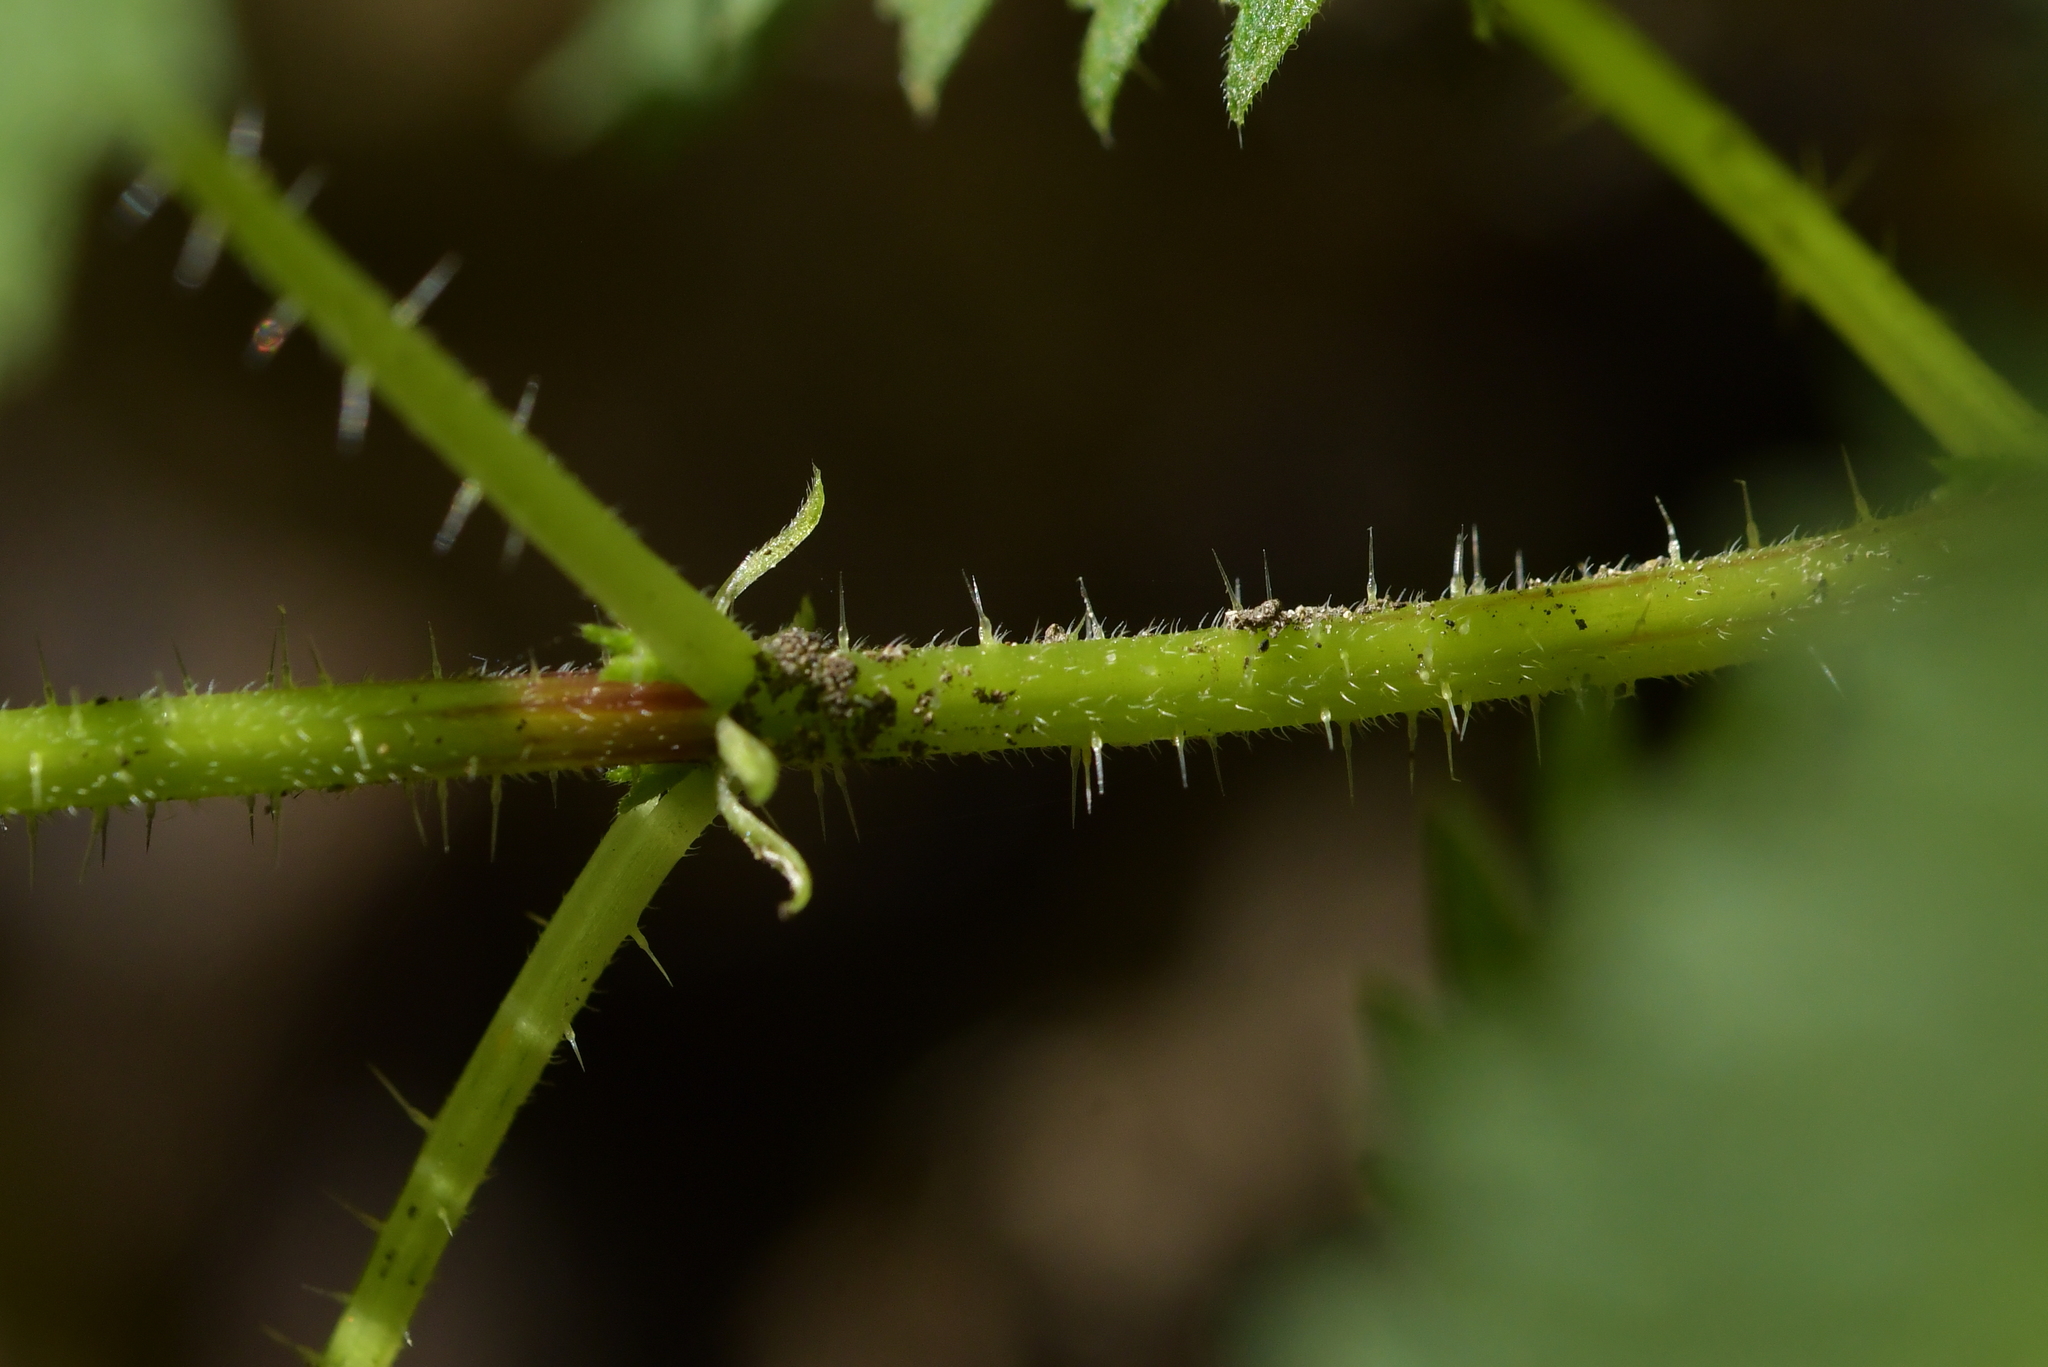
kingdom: Plantae
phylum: Tracheophyta
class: Magnoliopsida
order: Rosales
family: Urticaceae
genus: Urtica
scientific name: Urtica sykesii
